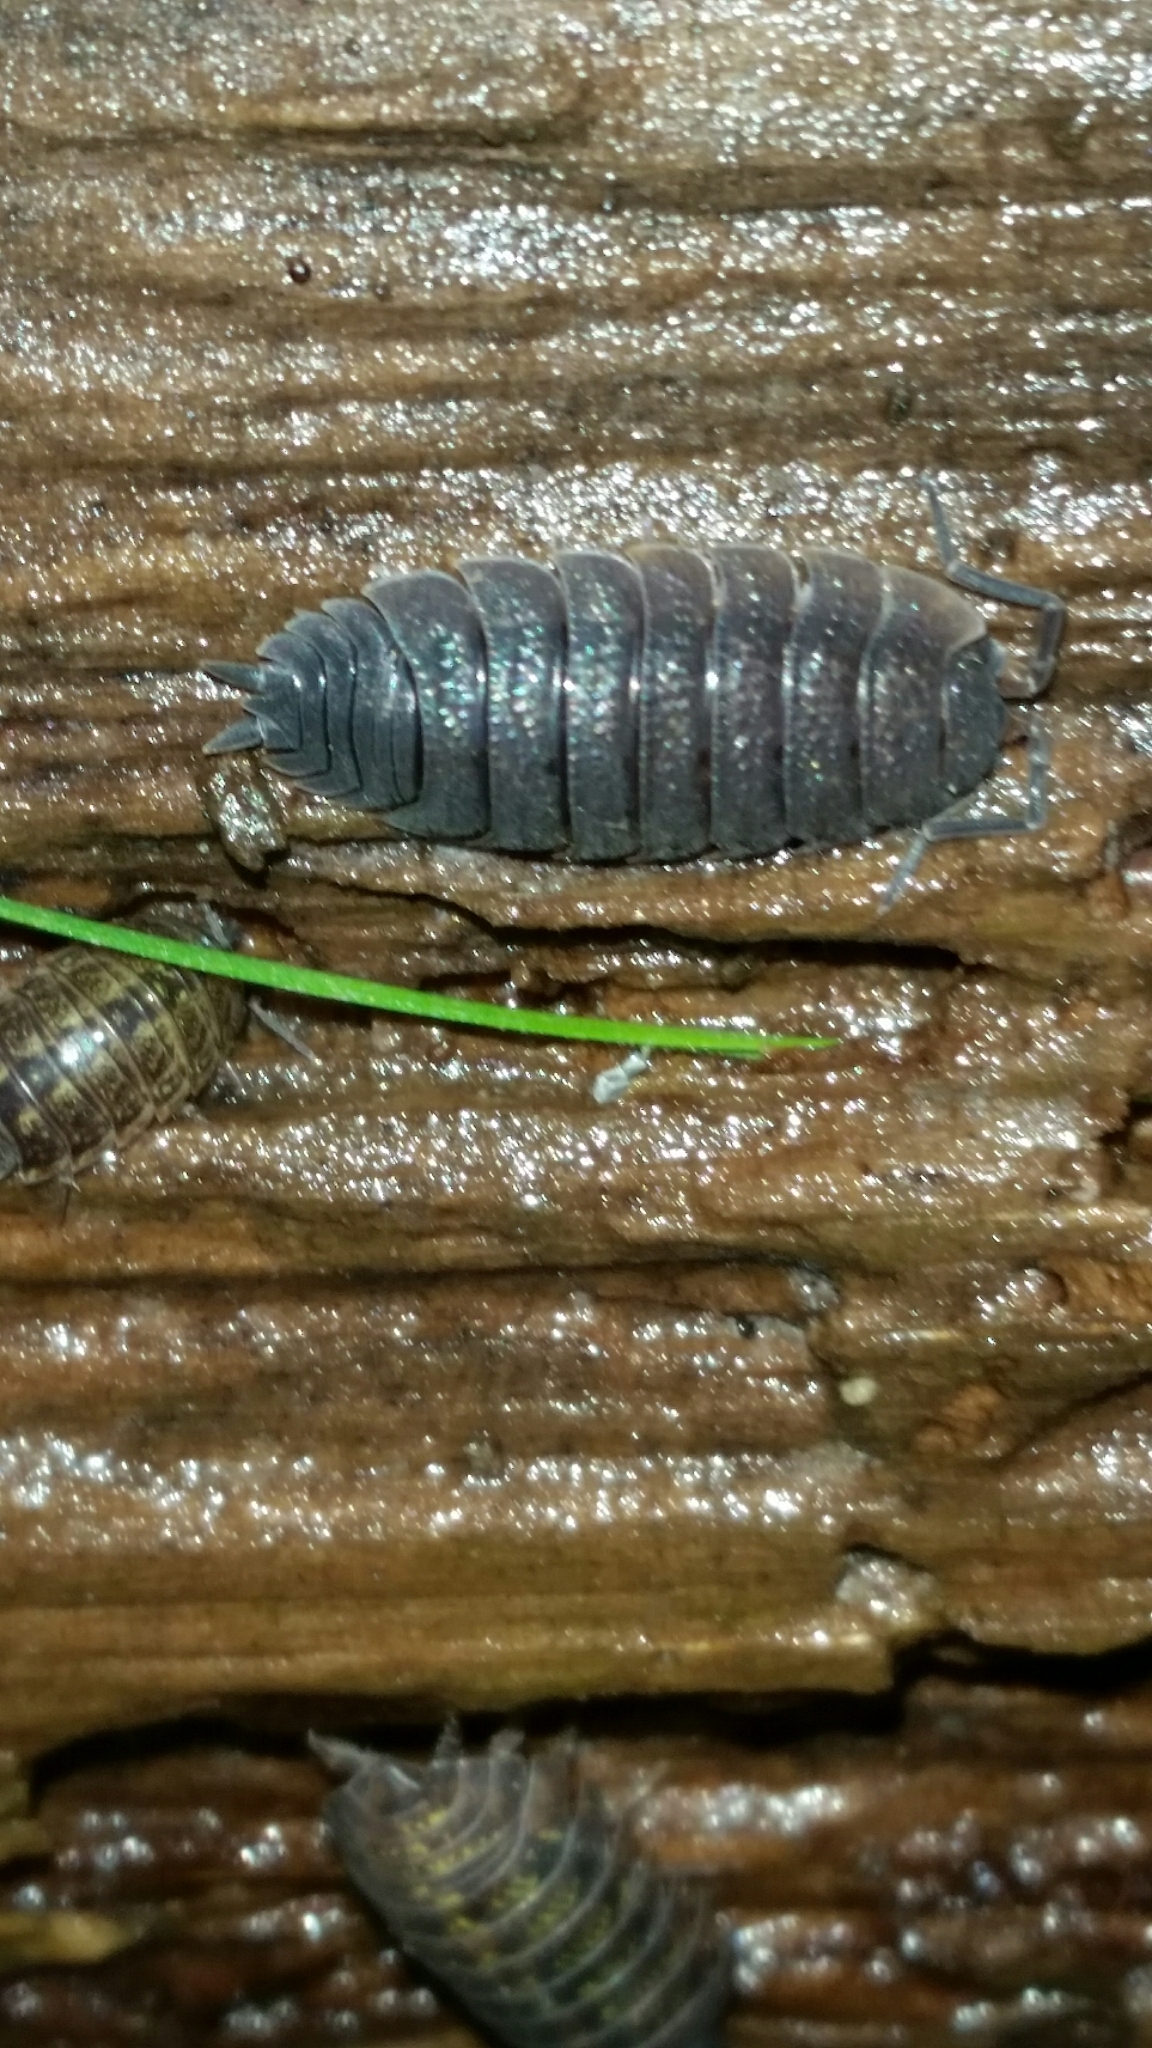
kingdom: Animalia
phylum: Arthropoda
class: Malacostraca
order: Isopoda
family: Porcellionidae
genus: Porcellio
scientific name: Porcellio scaber
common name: Common rough woodlouse
